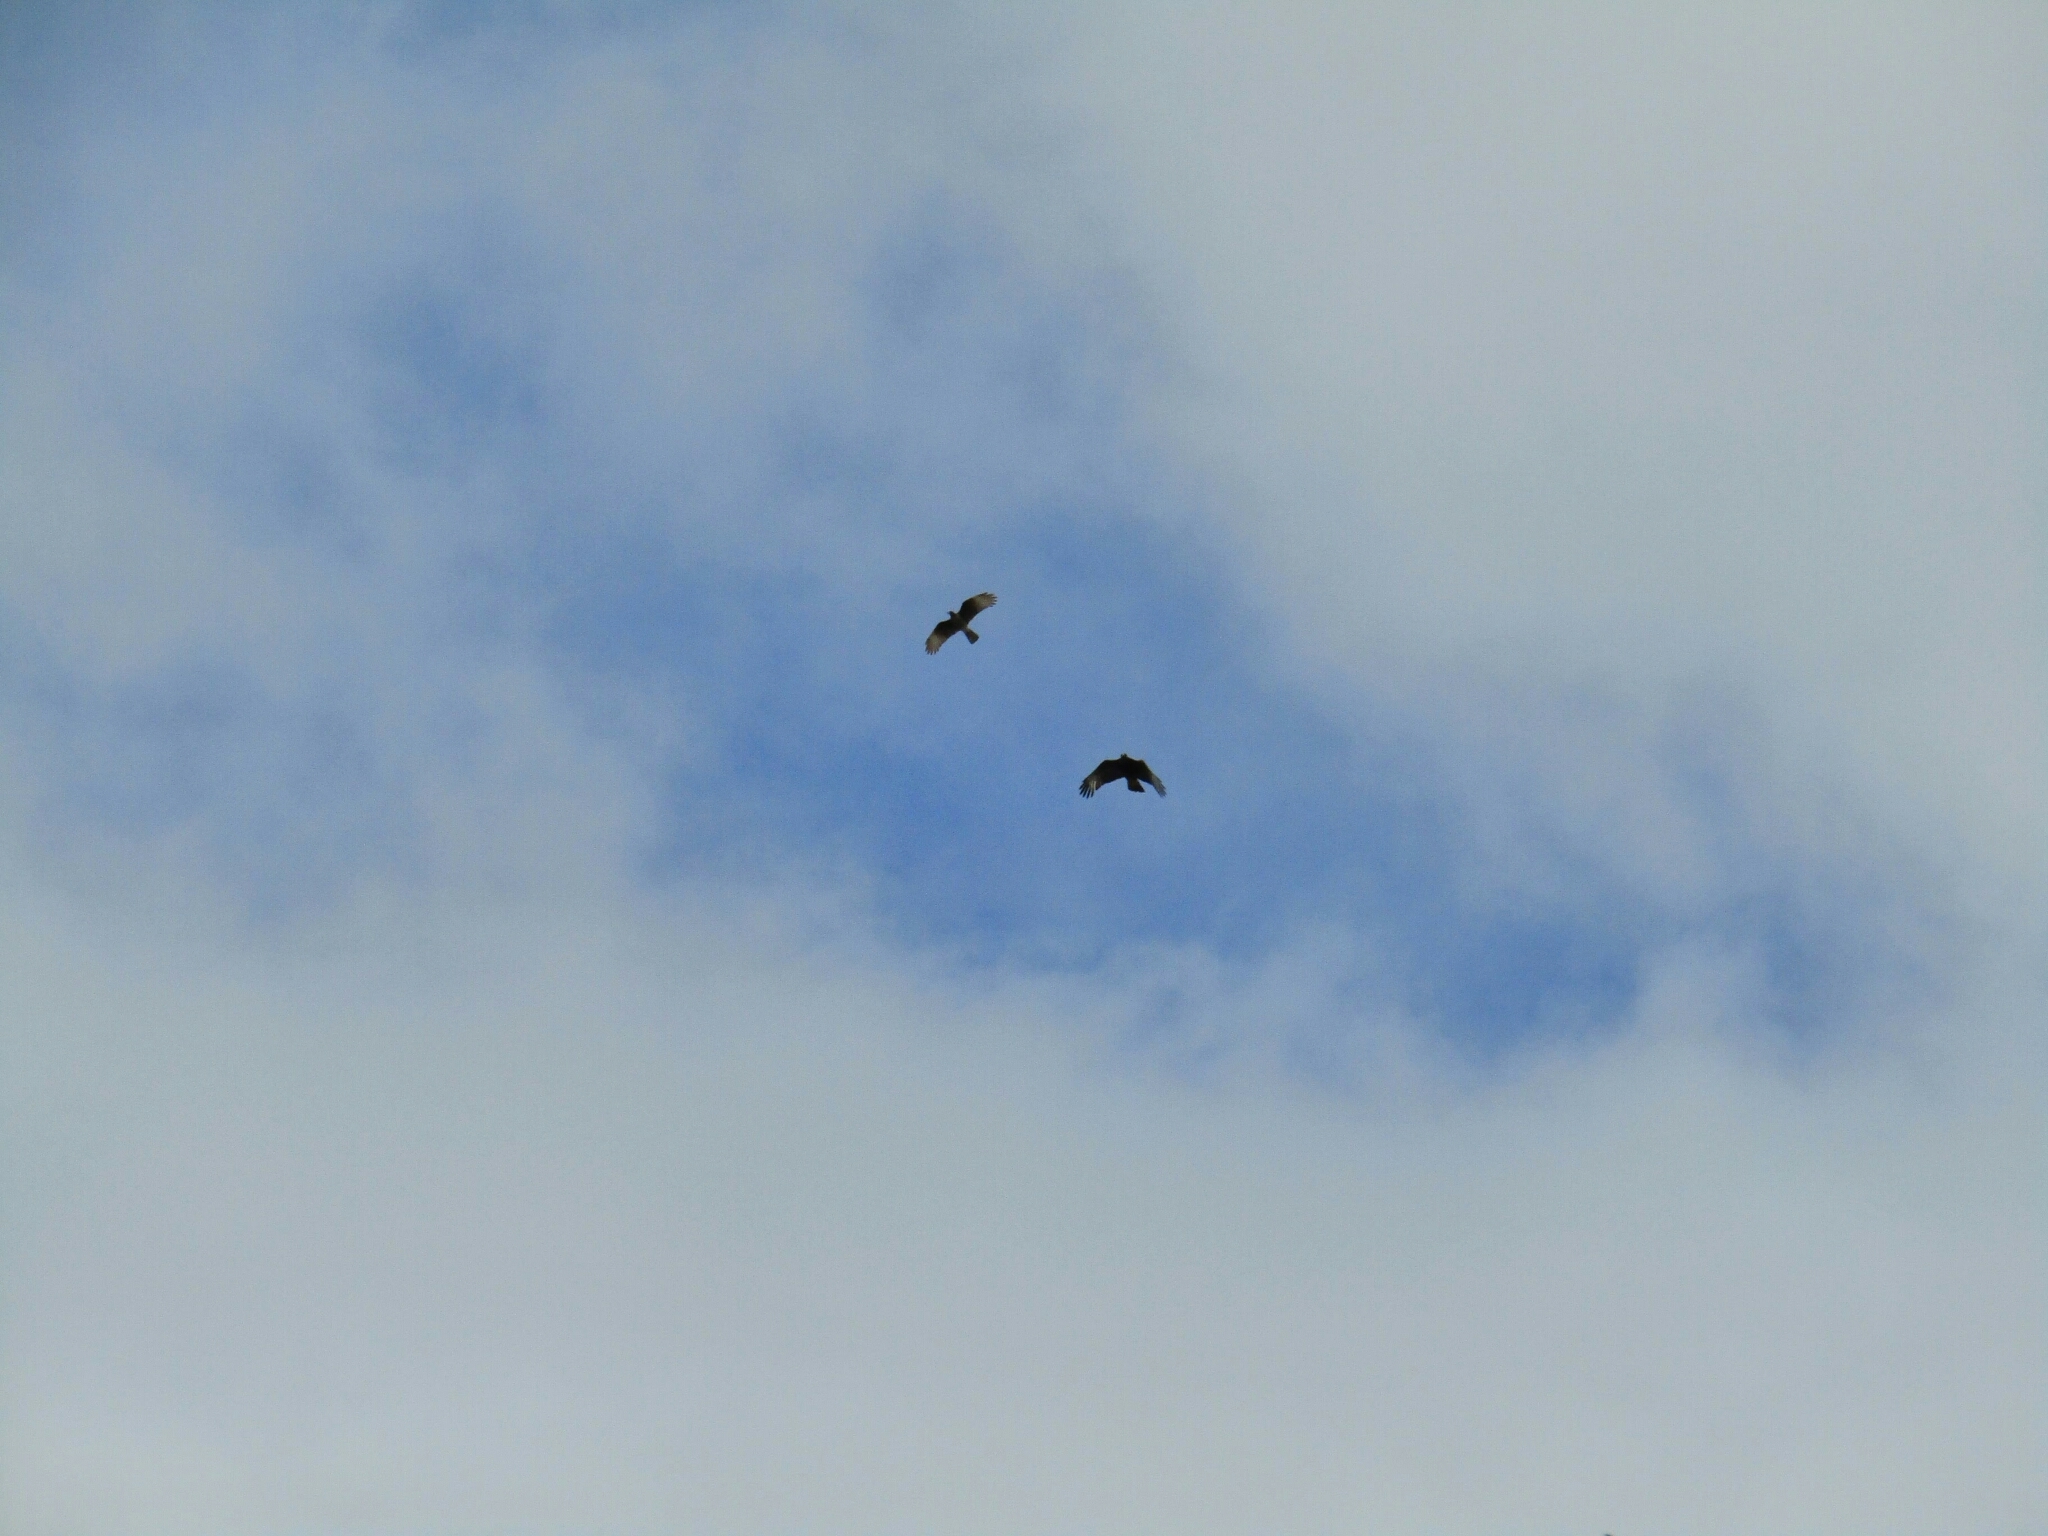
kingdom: Animalia
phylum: Chordata
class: Aves
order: Falconiformes
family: Falconidae
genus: Daptrius
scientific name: Daptrius
